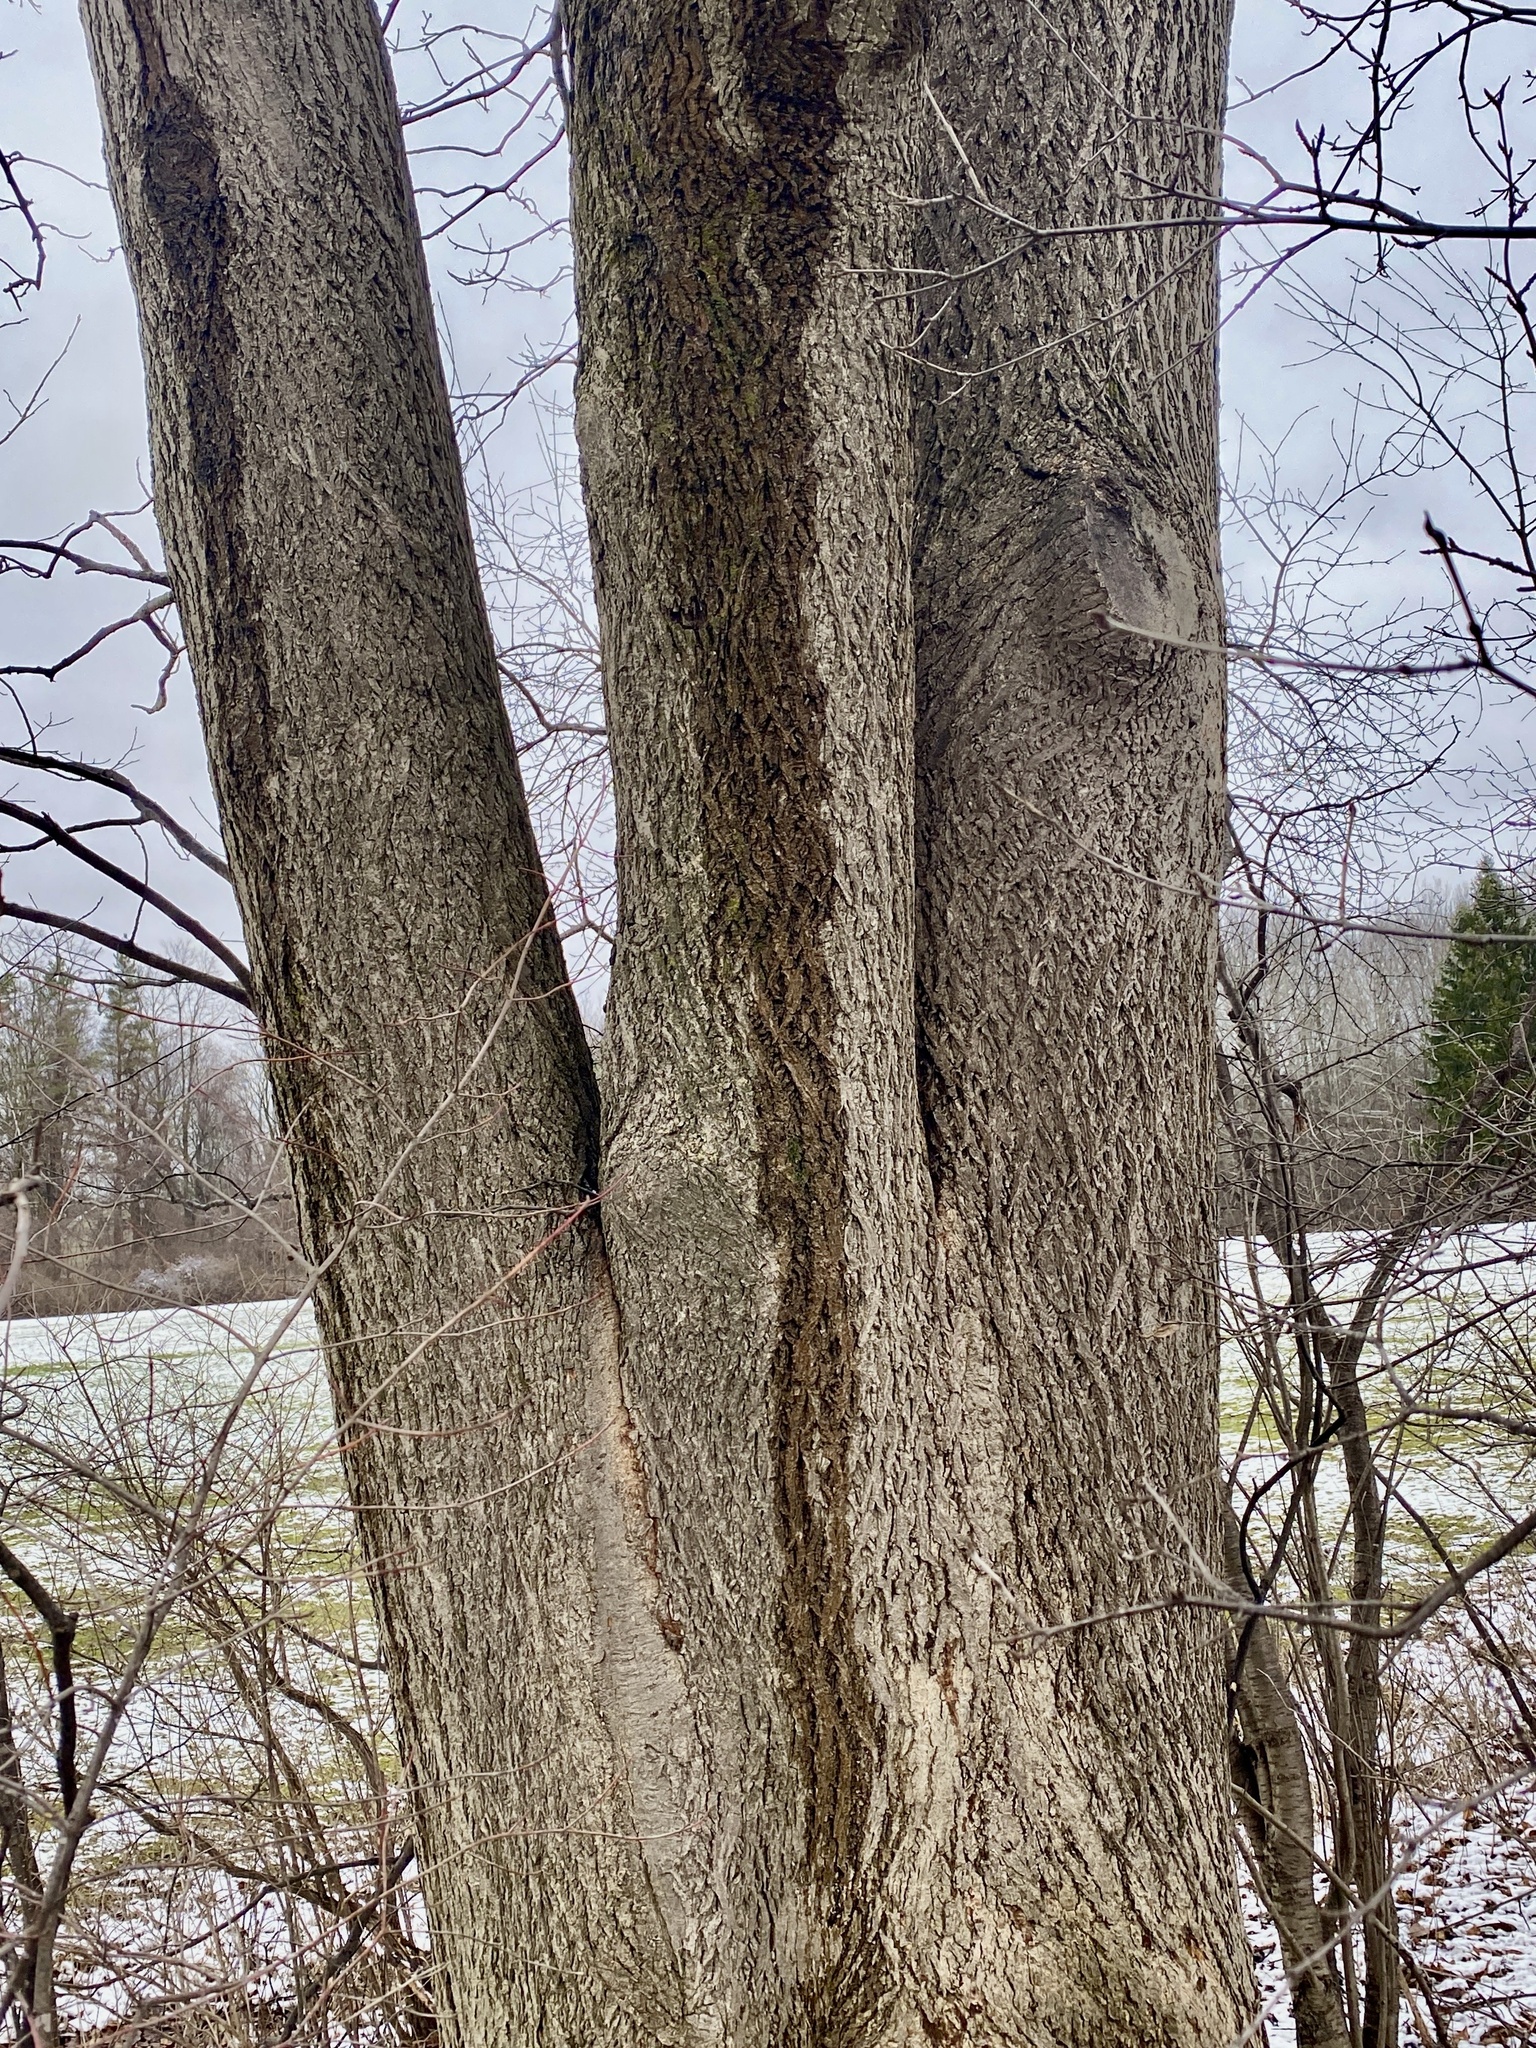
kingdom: Plantae
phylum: Tracheophyta
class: Magnoliopsida
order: Fagales
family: Juglandaceae
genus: Juglans
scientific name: Juglans nigra
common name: Black walnut
